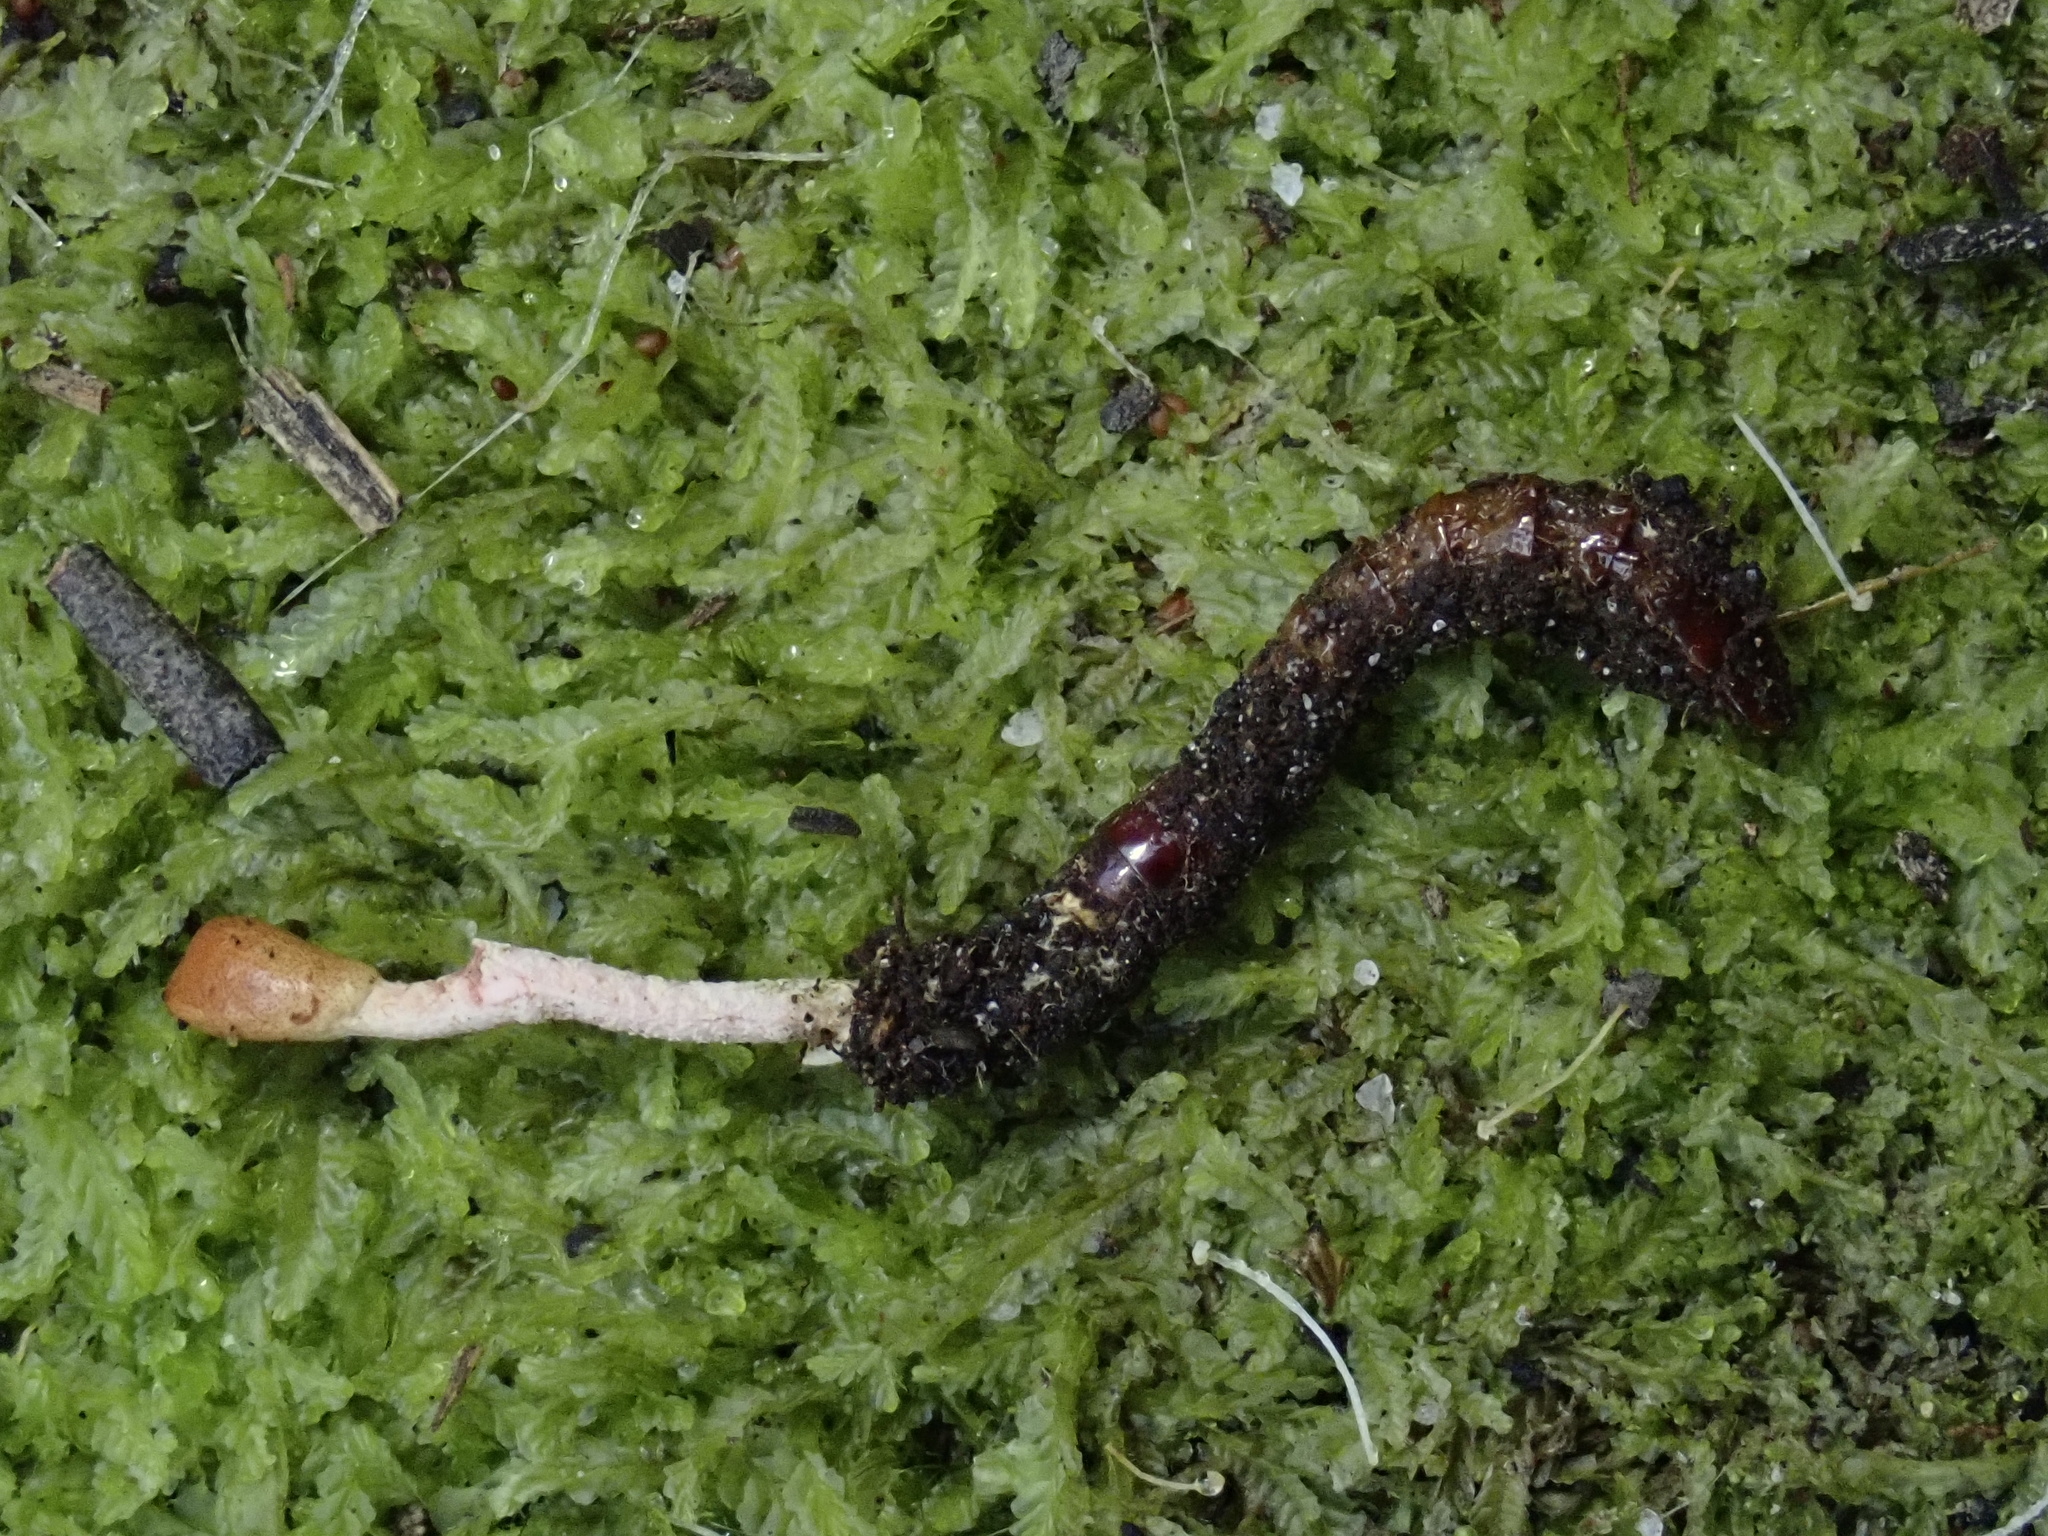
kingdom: Fungi
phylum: Ascomycota
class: Sordariomycetes
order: Hypocreales
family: Cordycipitaceae
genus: Cordyceps
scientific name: Cordyceps meneristitis
